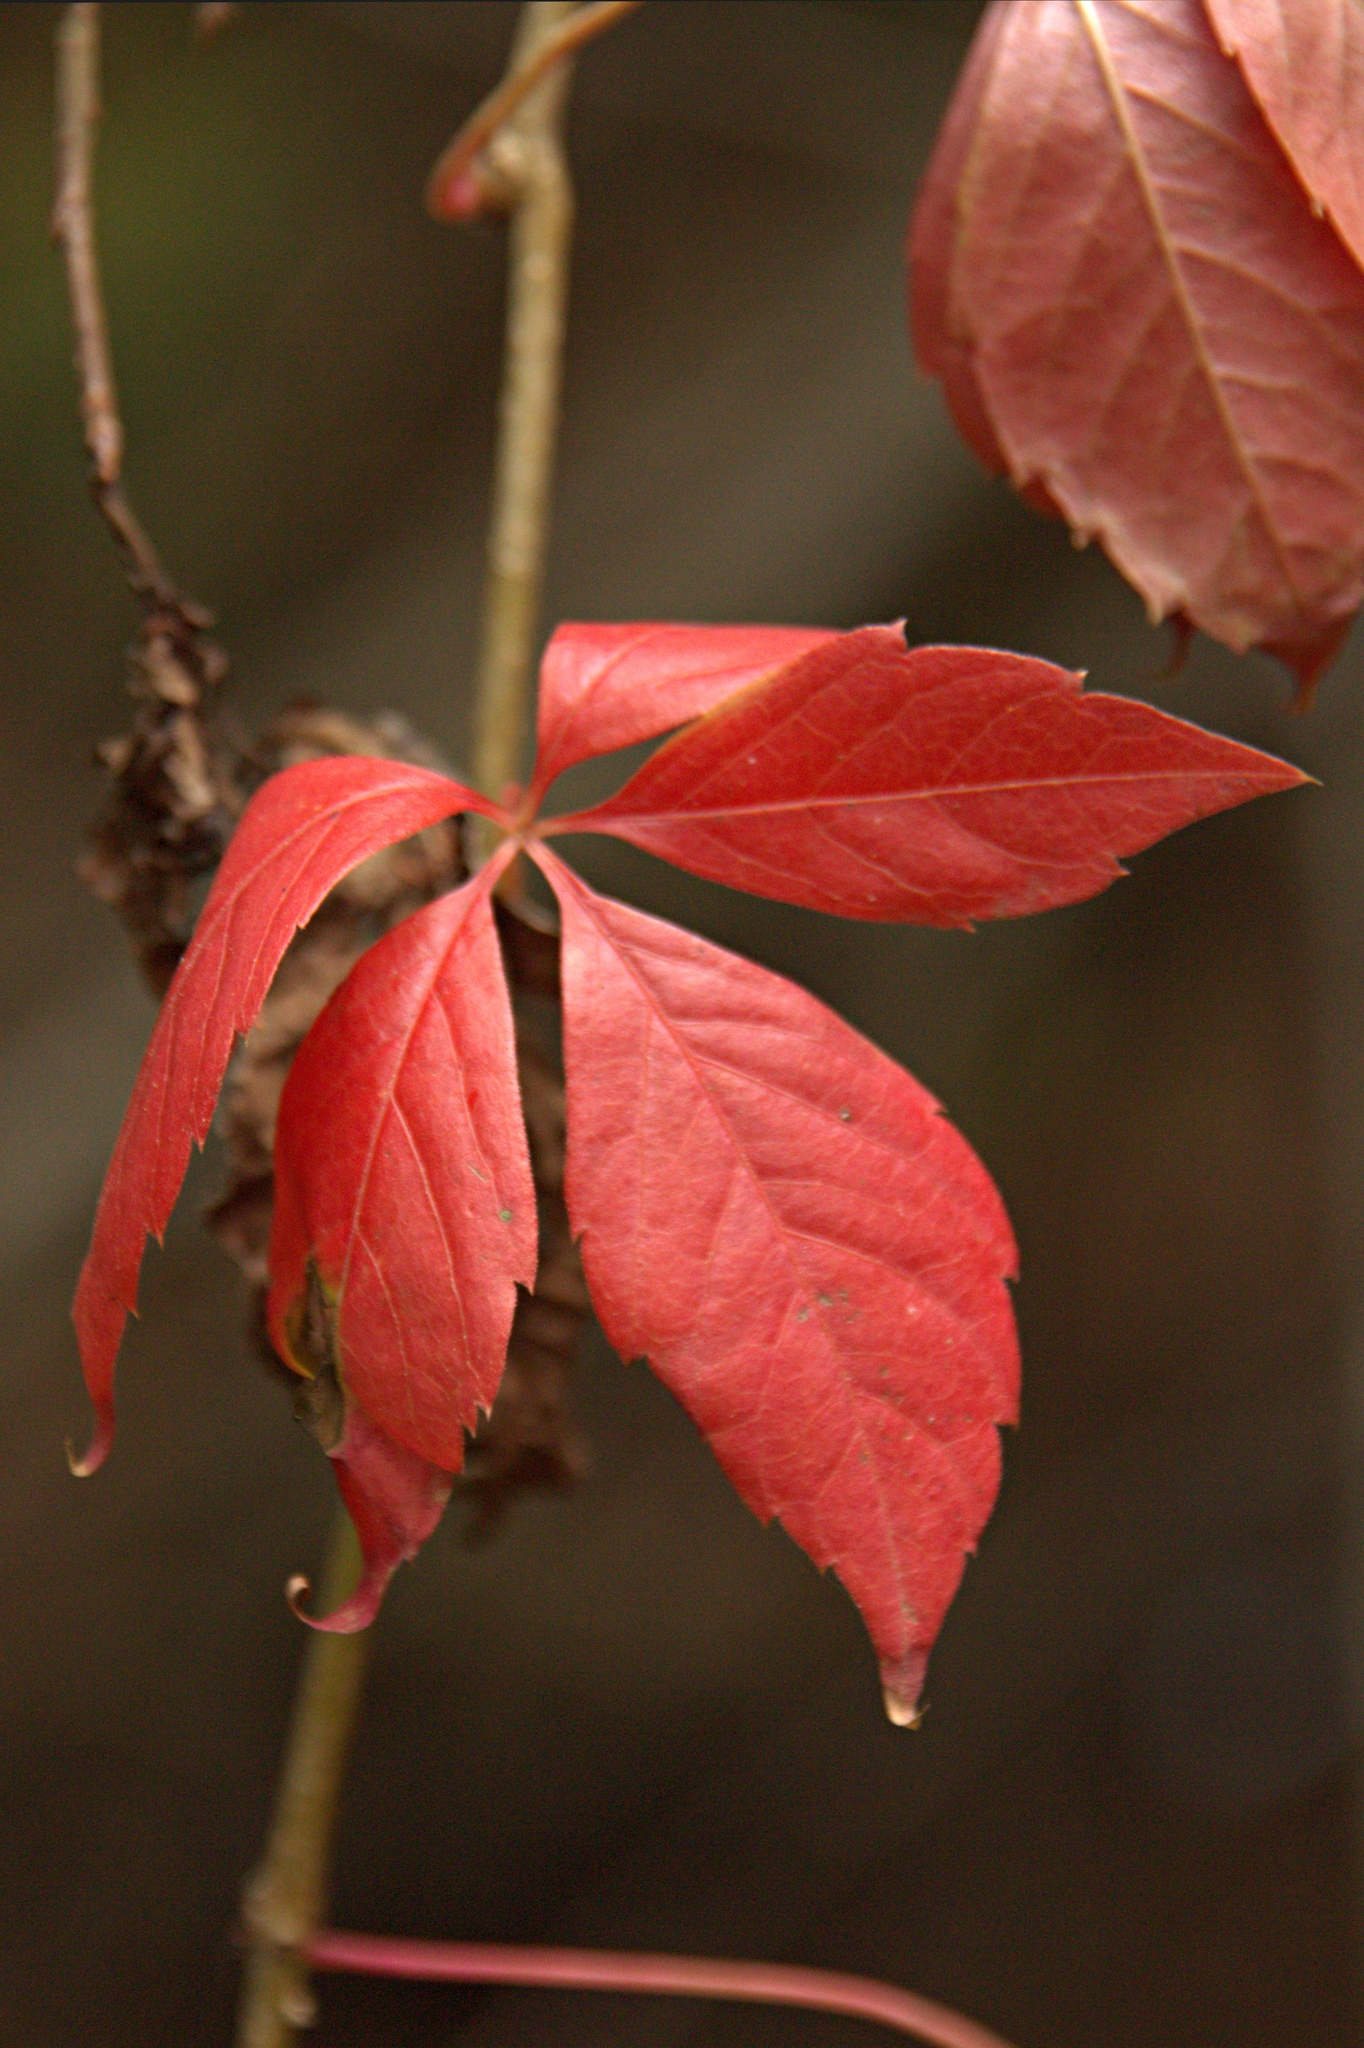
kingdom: Plantae
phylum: Tracheophyta
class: Magnoliopsida
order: Vitales
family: Vitaceae
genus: Parthenocissus
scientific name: Parthenocissus inserta
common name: False virginia-creeper
